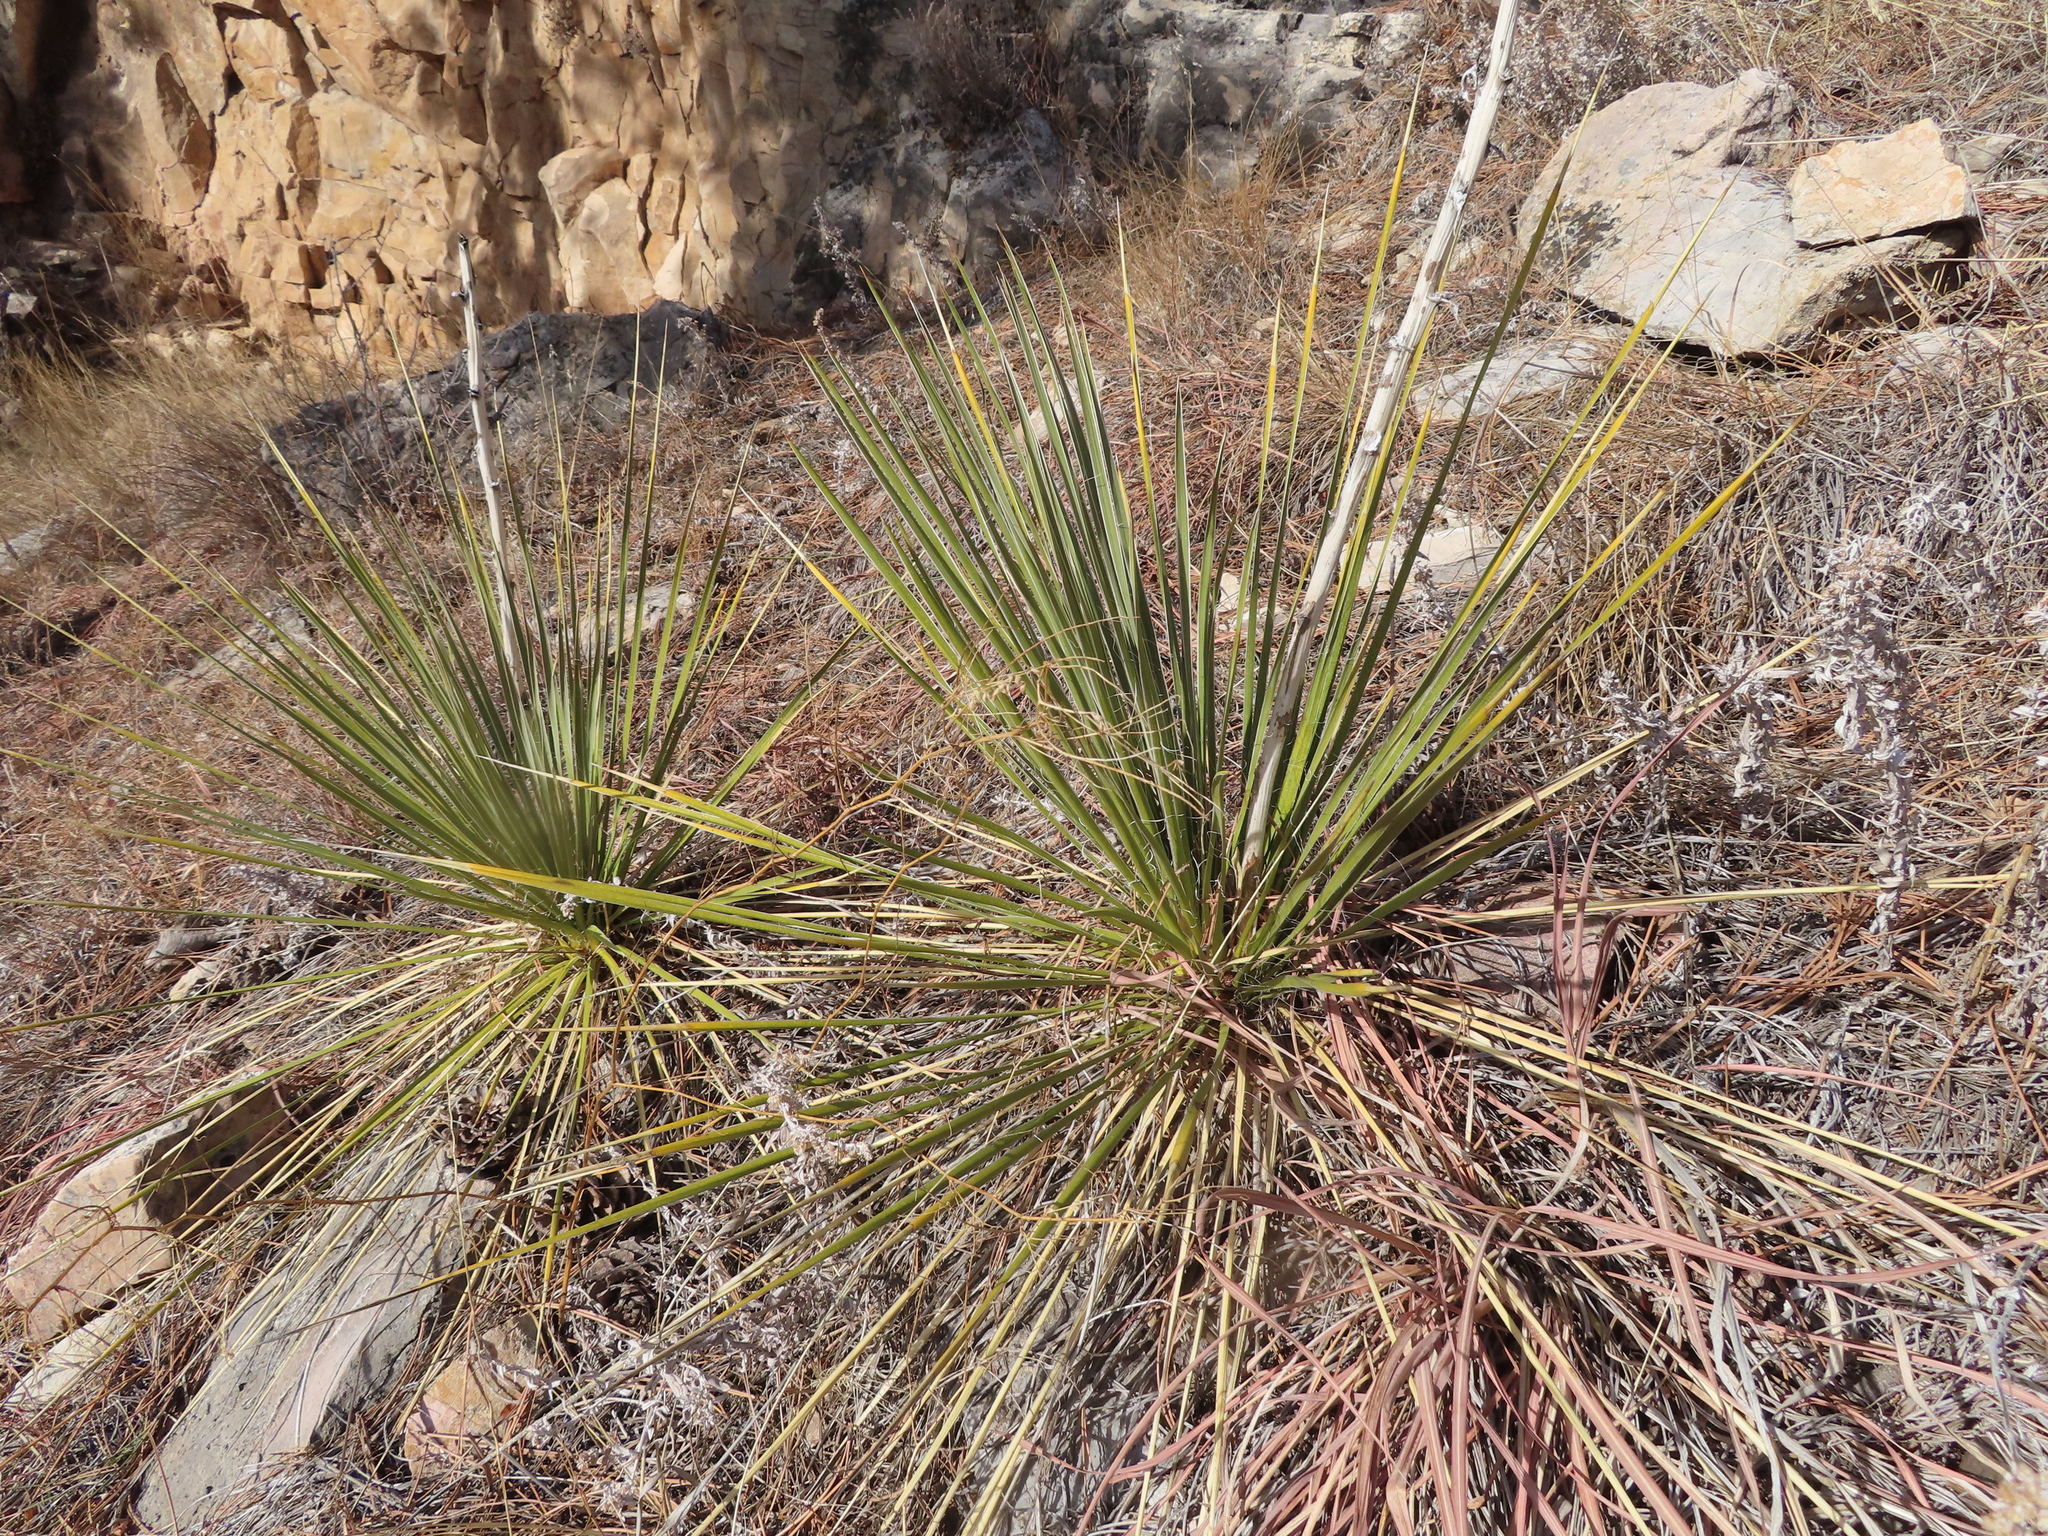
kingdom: Plantae
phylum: Tracheophyta
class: Liliopsida
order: Asparagales
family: Asparagaceae
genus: Yucca
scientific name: Yucca glauca
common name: Great plains yucca
